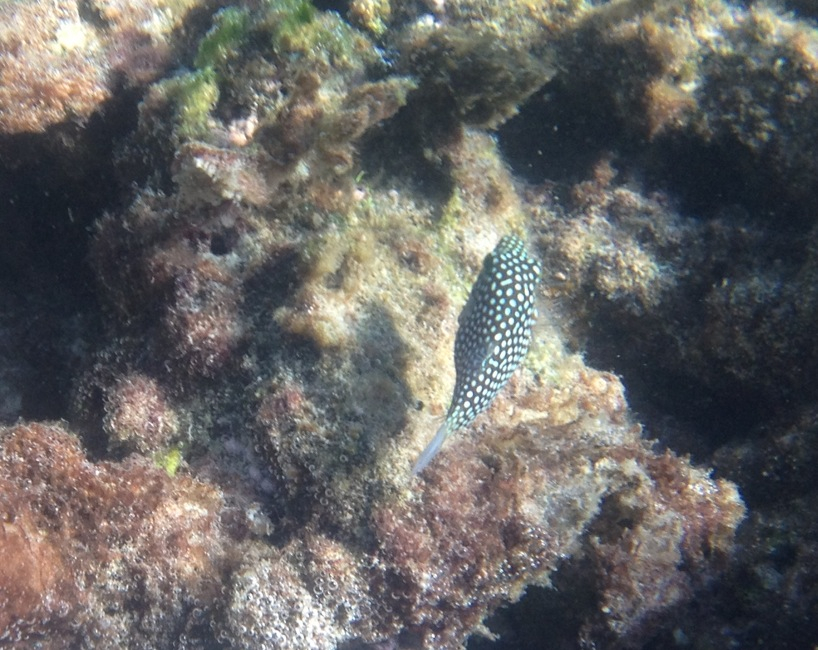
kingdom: Animalia
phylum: Chordata
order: Tetraodontiformes
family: Tetraodontidae
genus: Canthigaster
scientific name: Canthigaster jactator
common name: Hawaiian whitespotted toby
